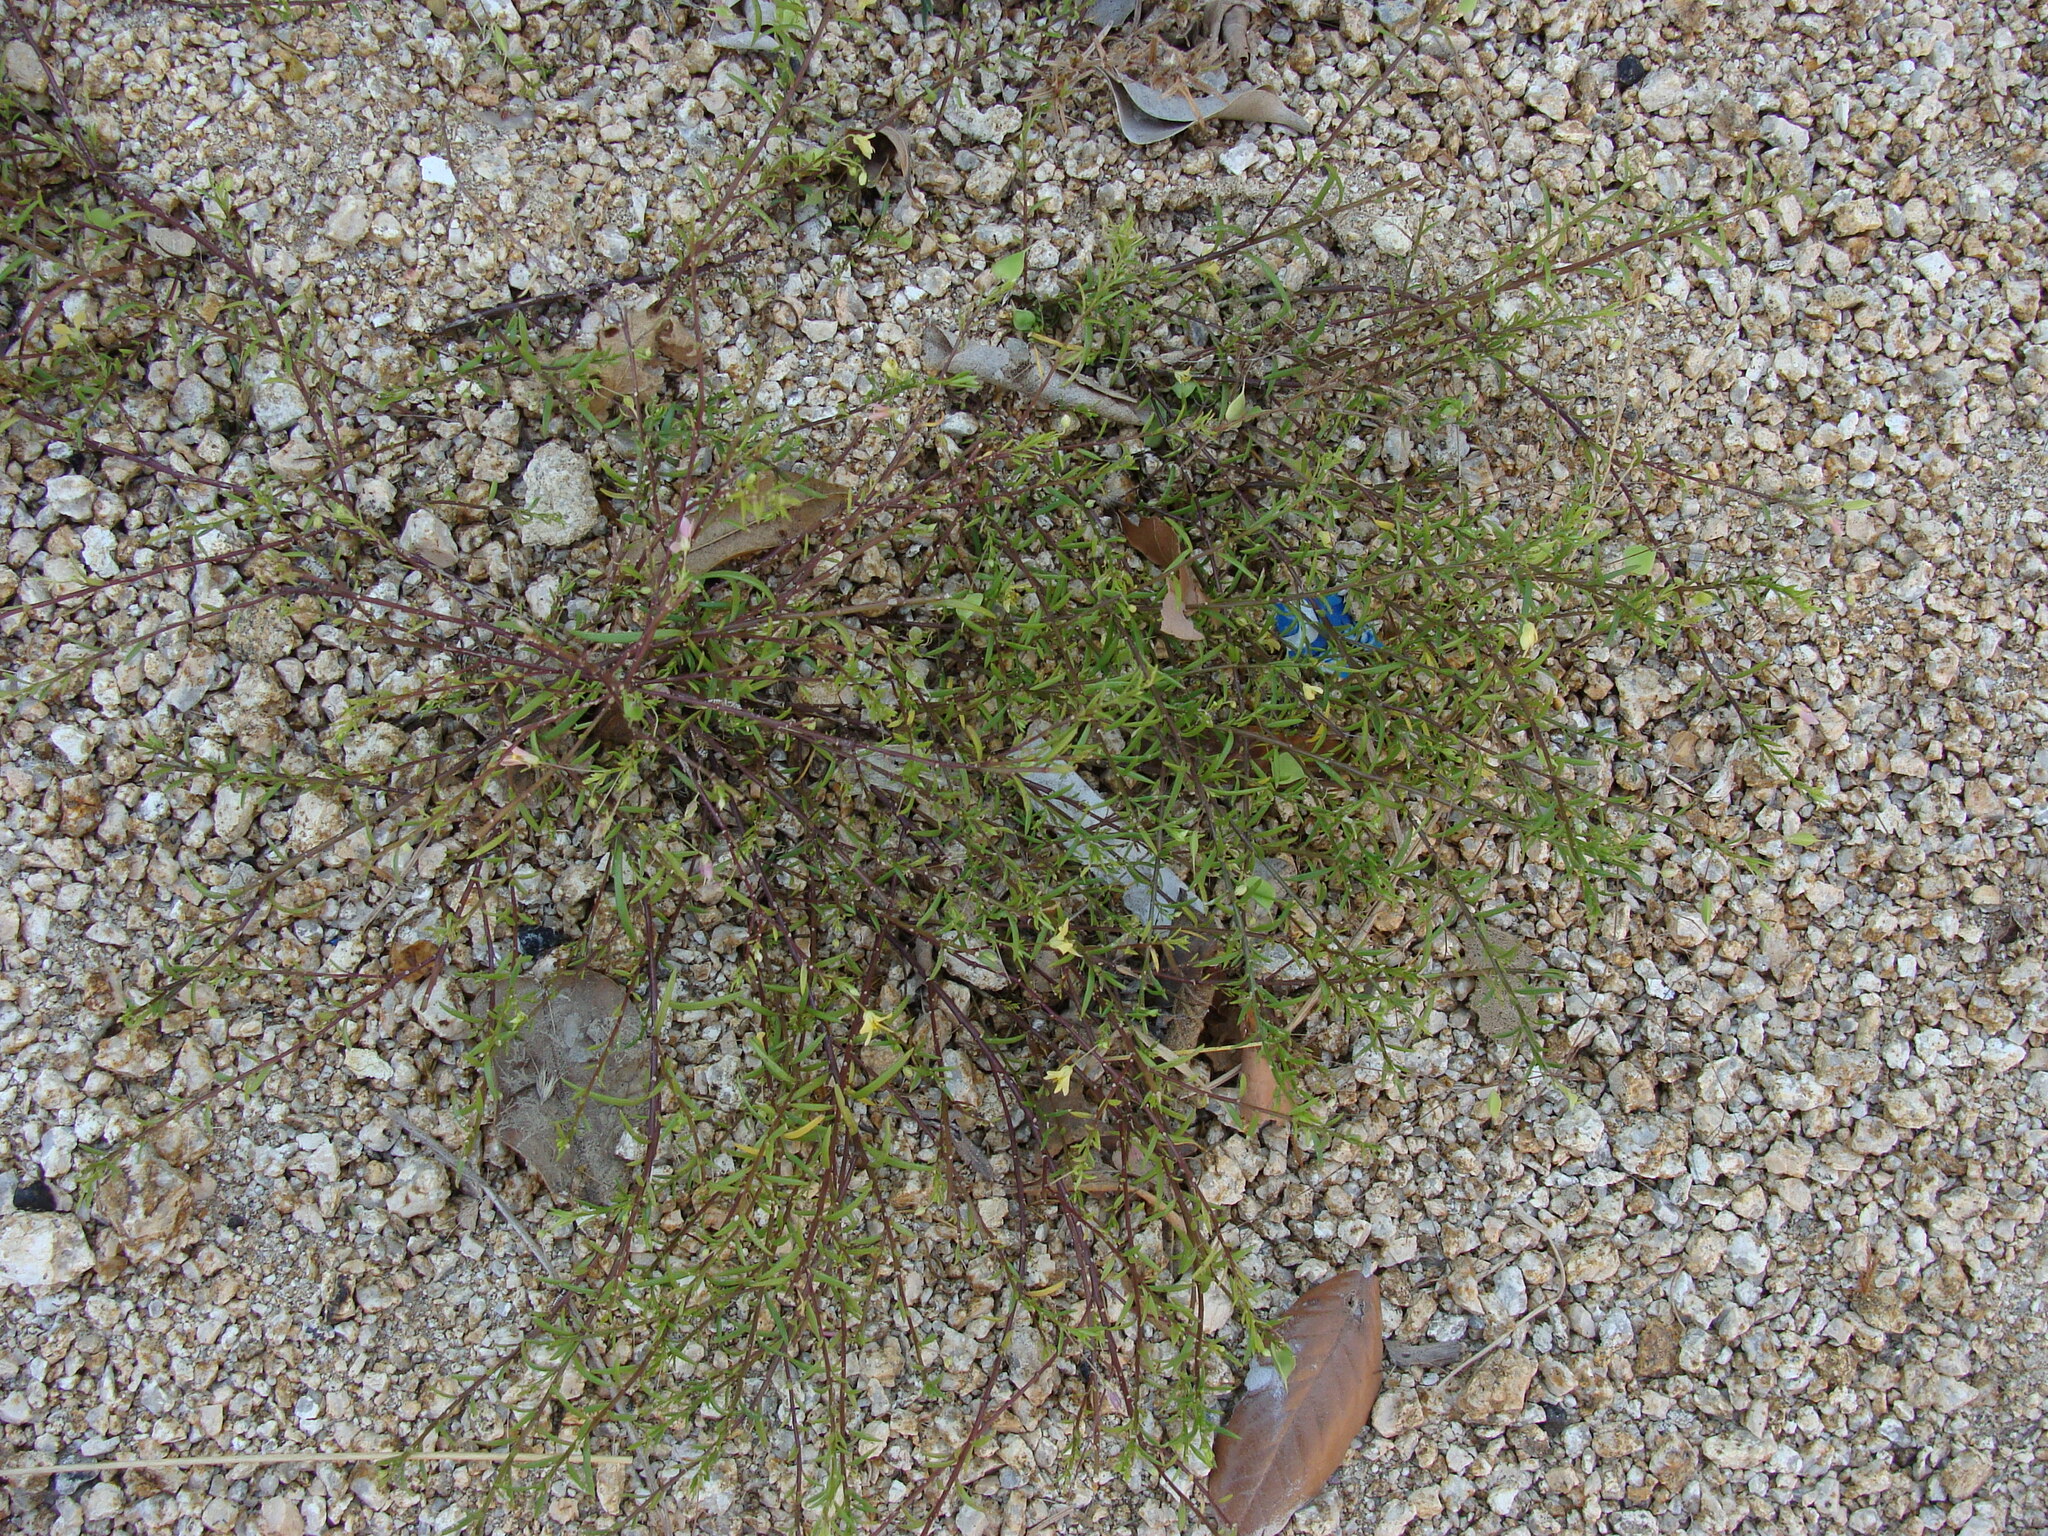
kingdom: Plantae
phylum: Tracheophyta
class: Magnoliopsida
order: Brassicales
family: Cleomaceae
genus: Physostemon
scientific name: Physostemon hemsleyanus
